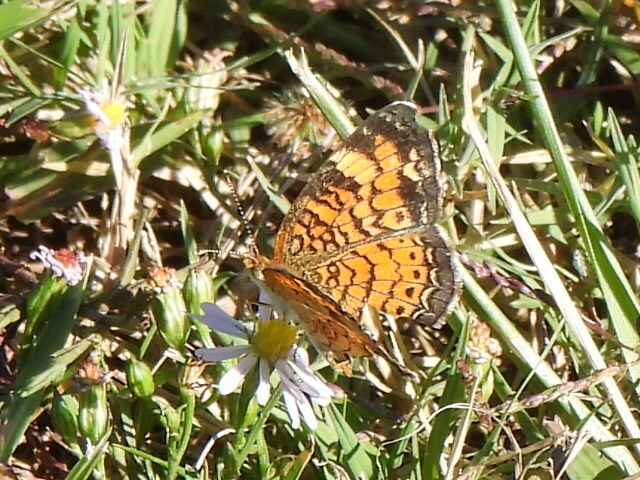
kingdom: Animalia
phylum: Arthropoda
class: Insecta
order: Lepidoptera
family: Nymphalidae
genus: Phyciodes
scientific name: Phyciodes tharos
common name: Pearl crescent
